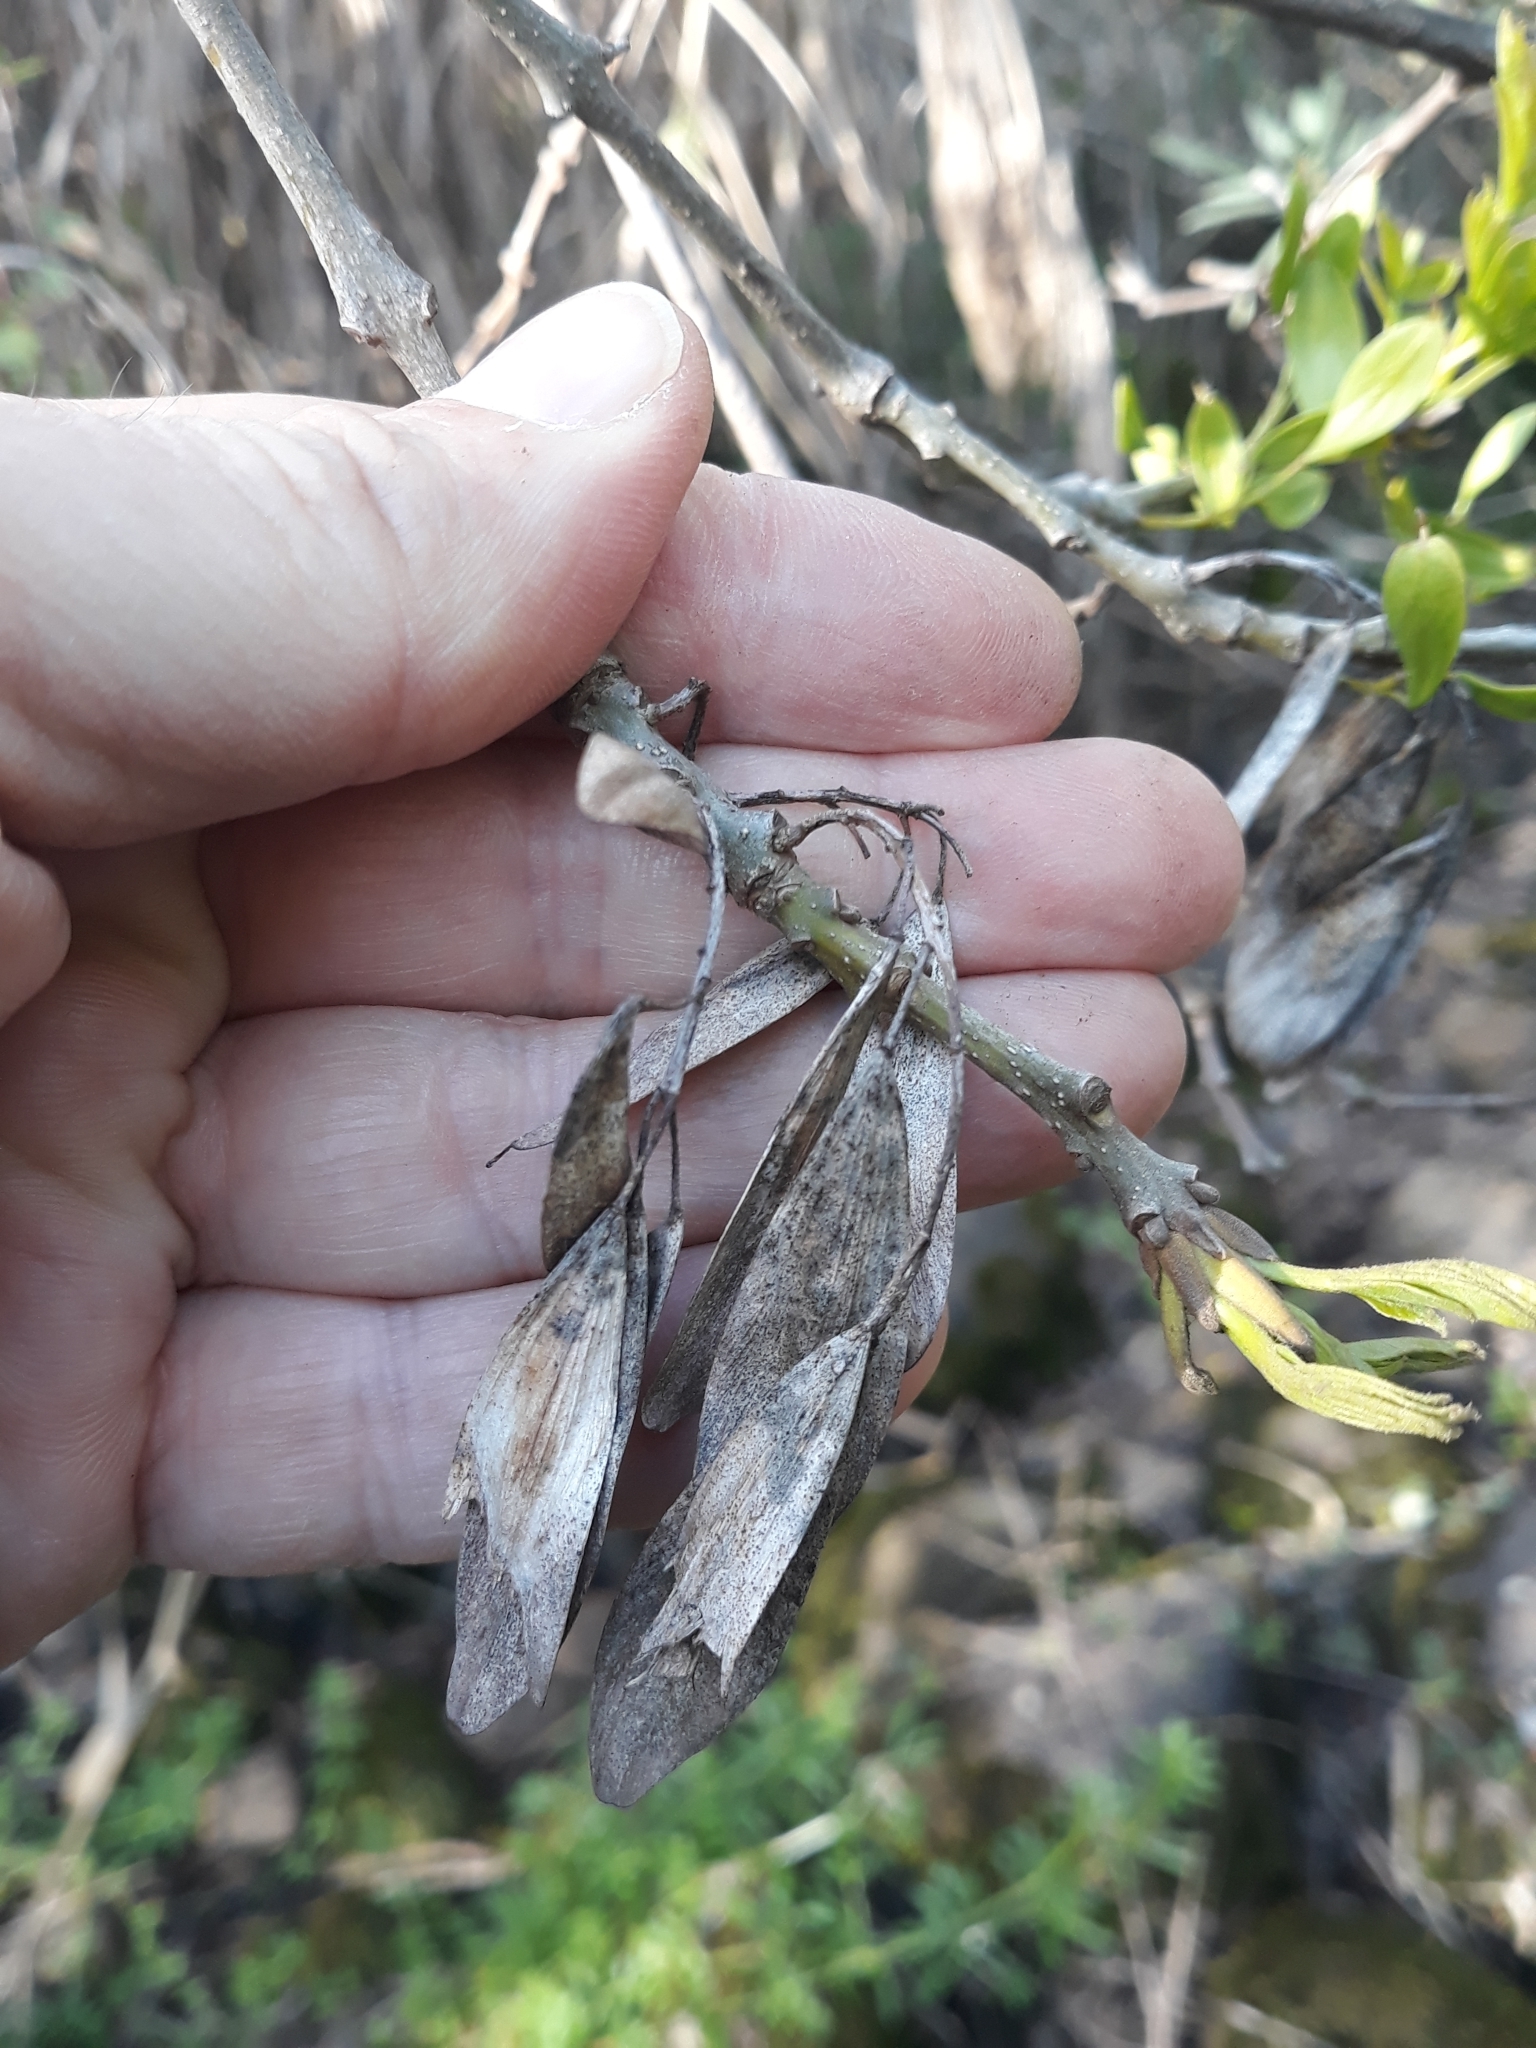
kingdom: Plantae
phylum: Tracheophyta
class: Magnoliopsida
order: Lamiales
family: Oleaceae
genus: Fraxinus
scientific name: Fraxinus angustifolia
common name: Narrow-leafed ash
